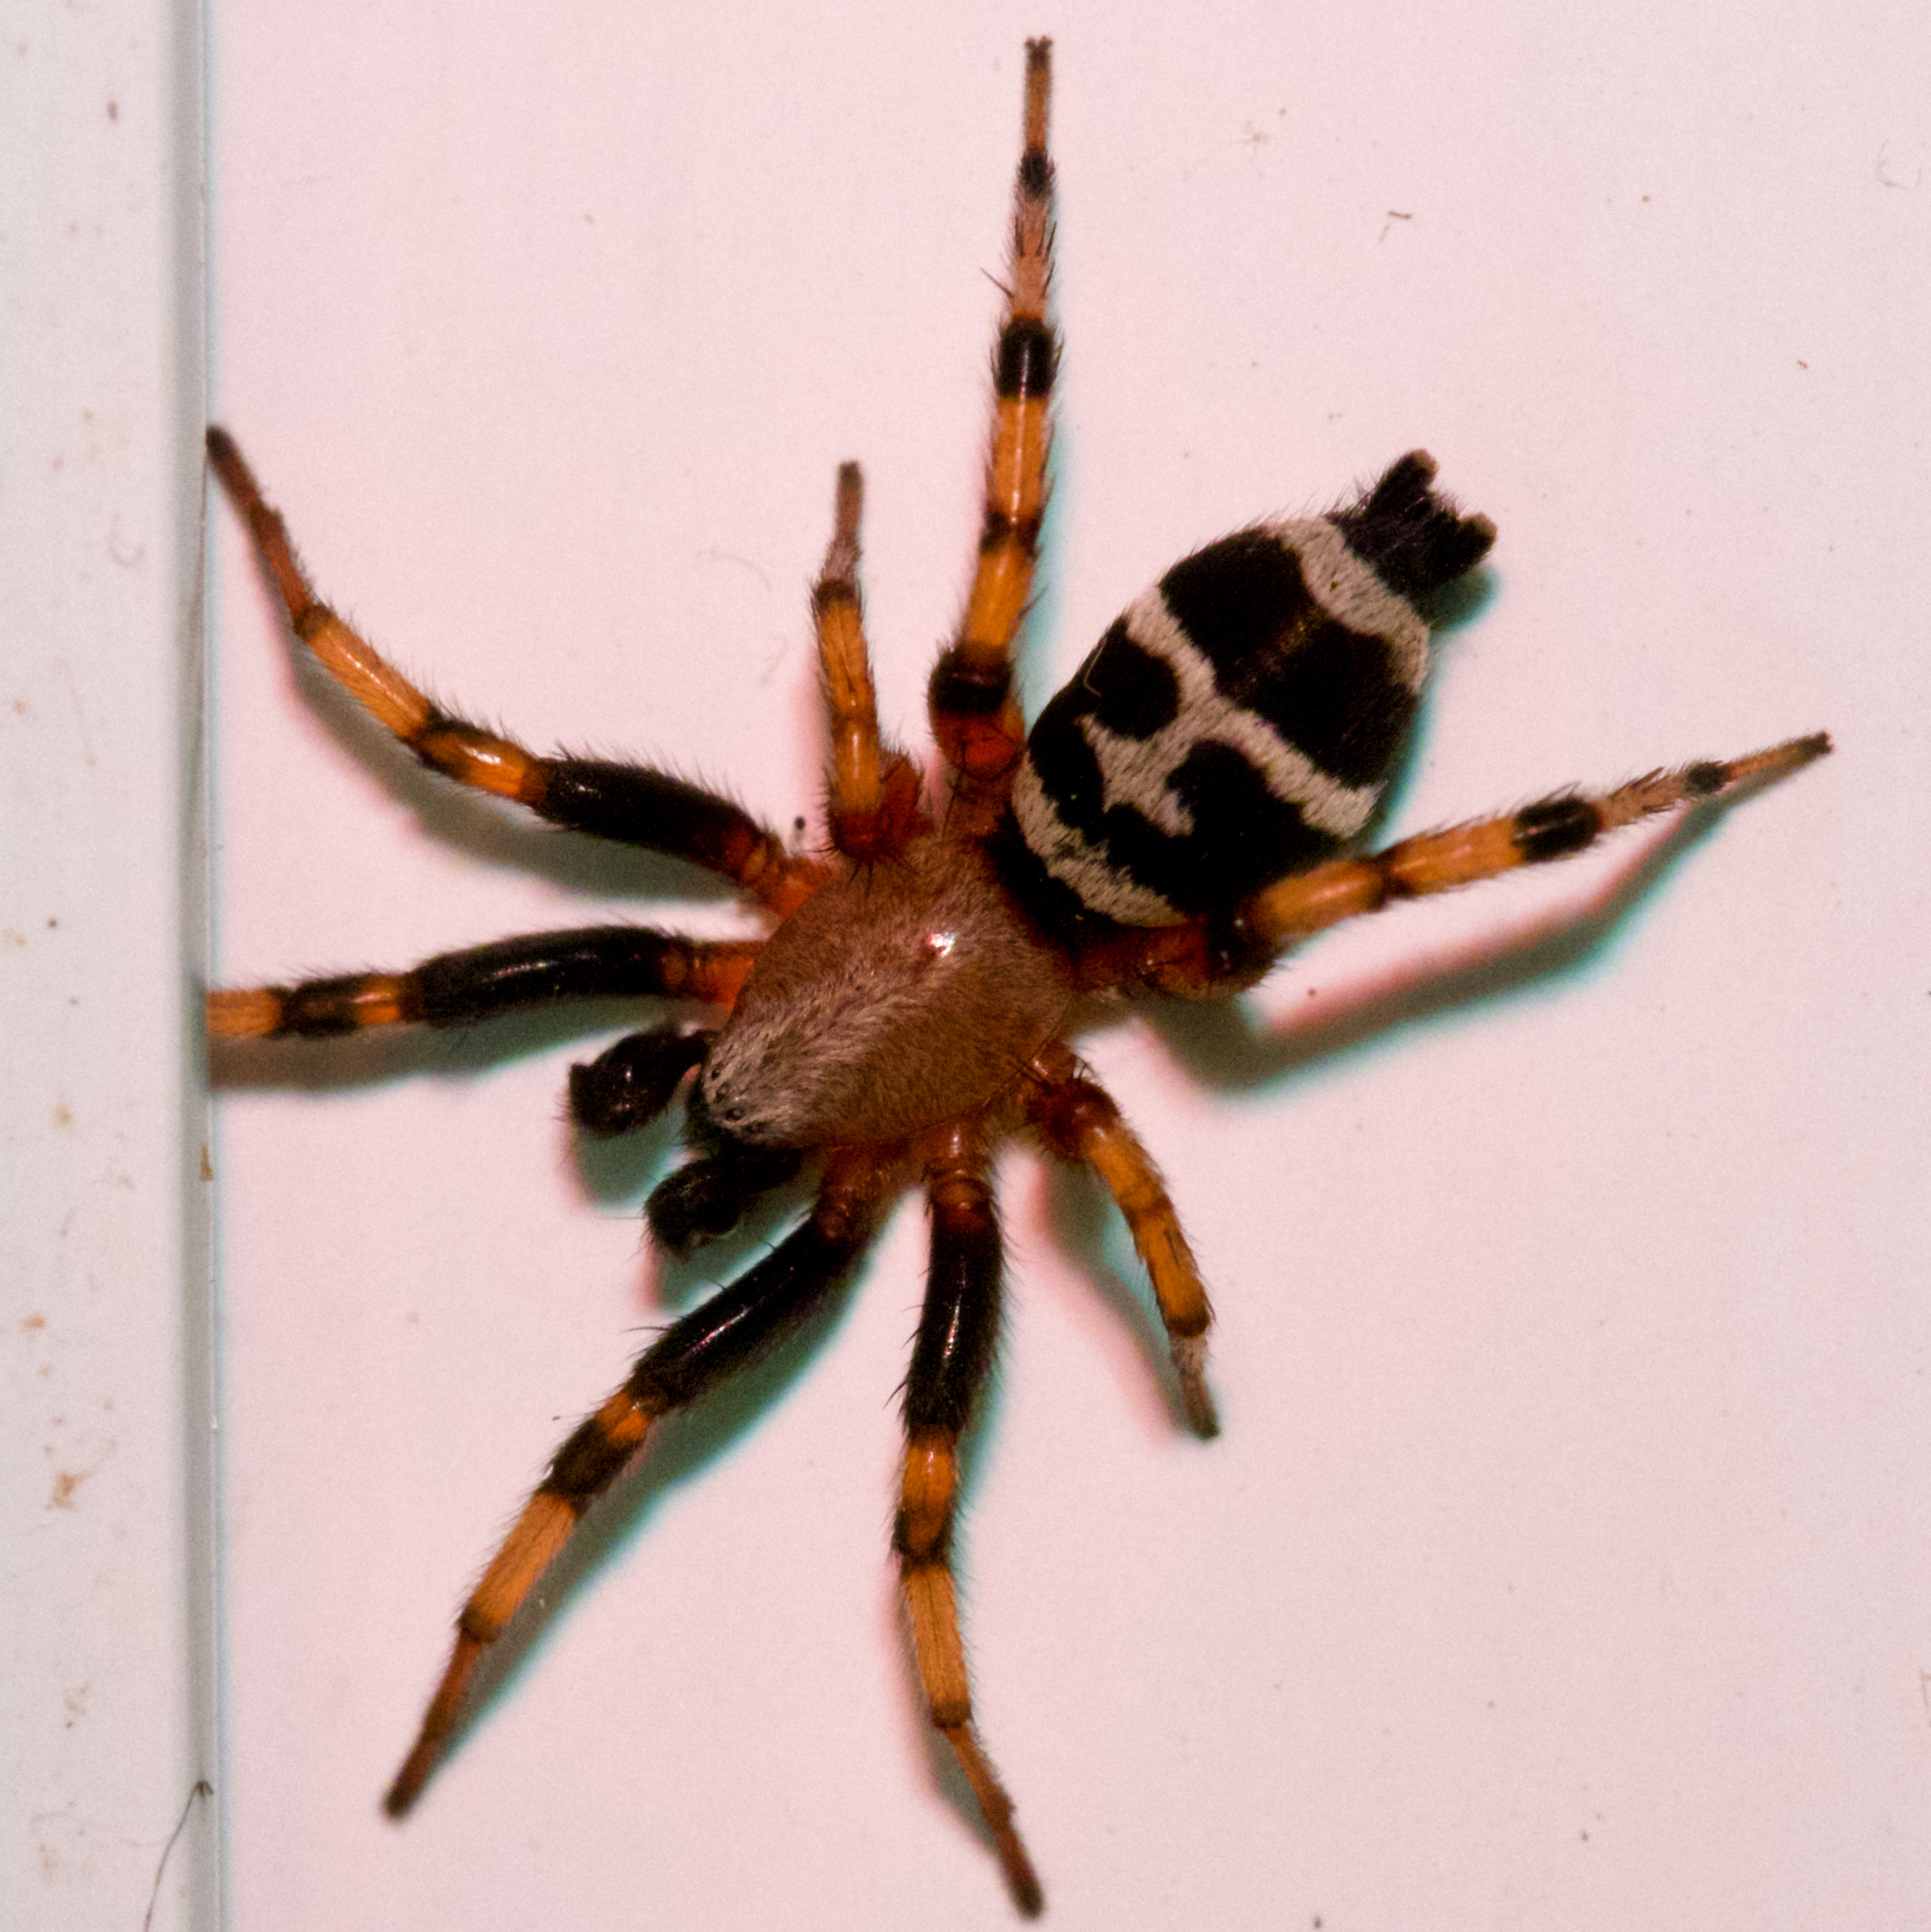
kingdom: Animalia
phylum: Arthropoda
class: Arachnida
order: Araneae
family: Gnaphosidae
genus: Sergiolus
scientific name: Sergiolus capulatus
